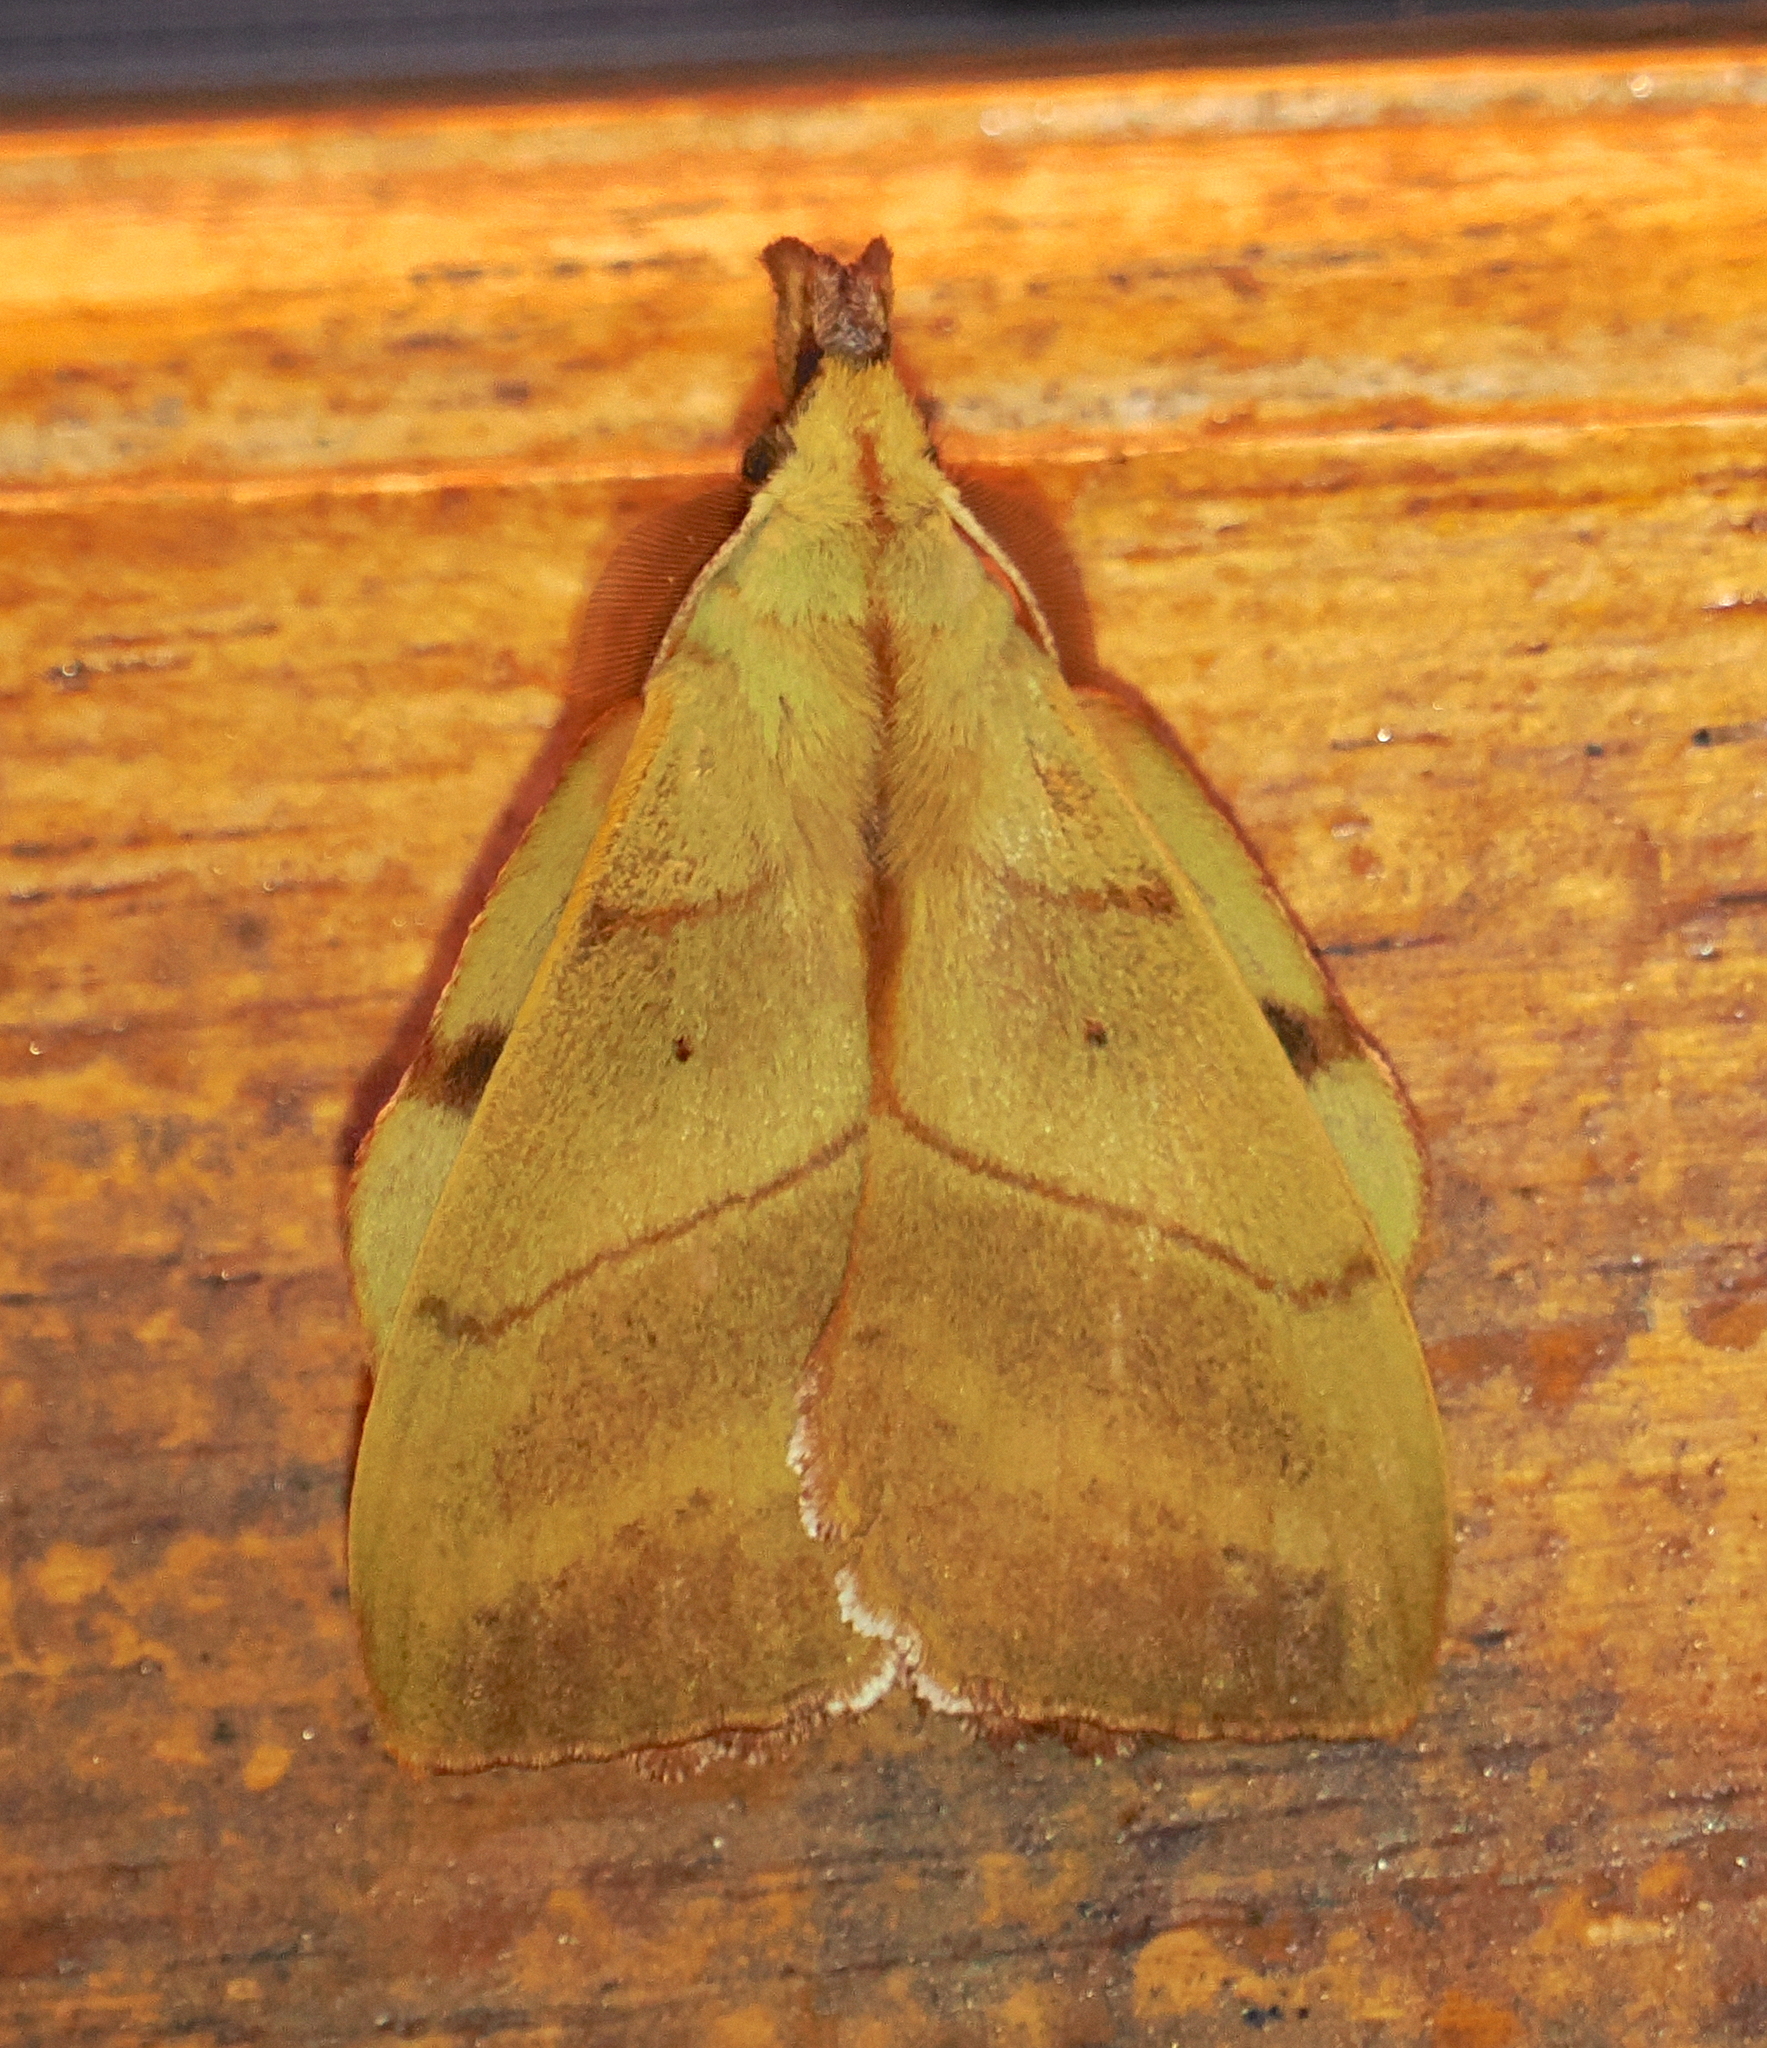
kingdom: Animalia
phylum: Arthropoda
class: Insecta
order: Lepidoptera
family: Lasiocampidae
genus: Radhica
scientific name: Radhica elisabethae
